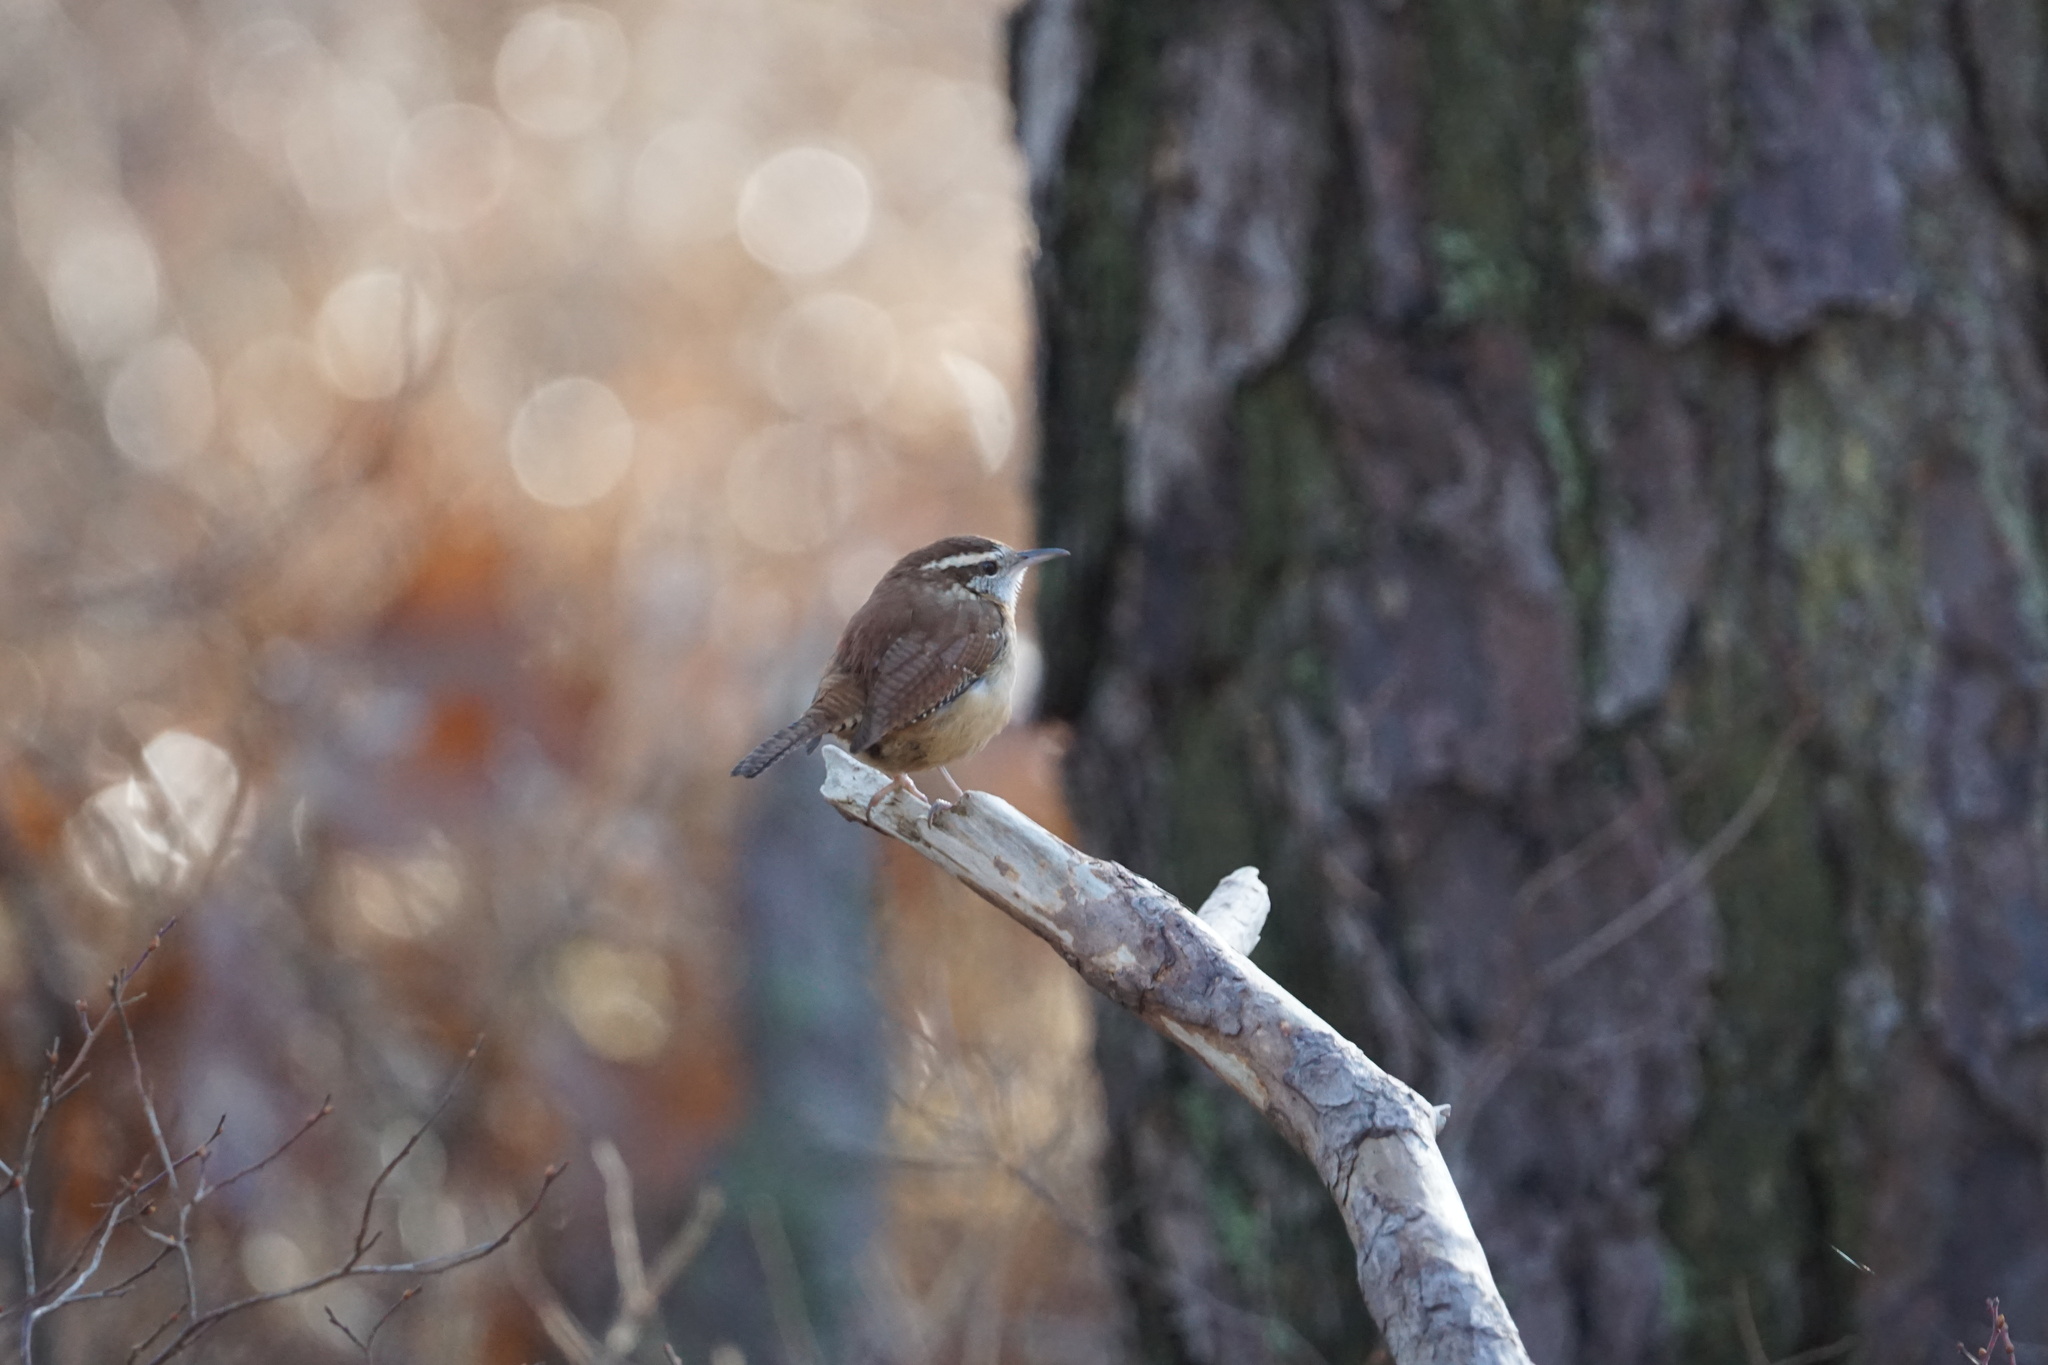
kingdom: Animalia
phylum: Chordata
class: Aves
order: Passeriformes
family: Troglodytidae
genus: Thryothorus
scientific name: Thryothorus ludovicianus
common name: Carolina wren
